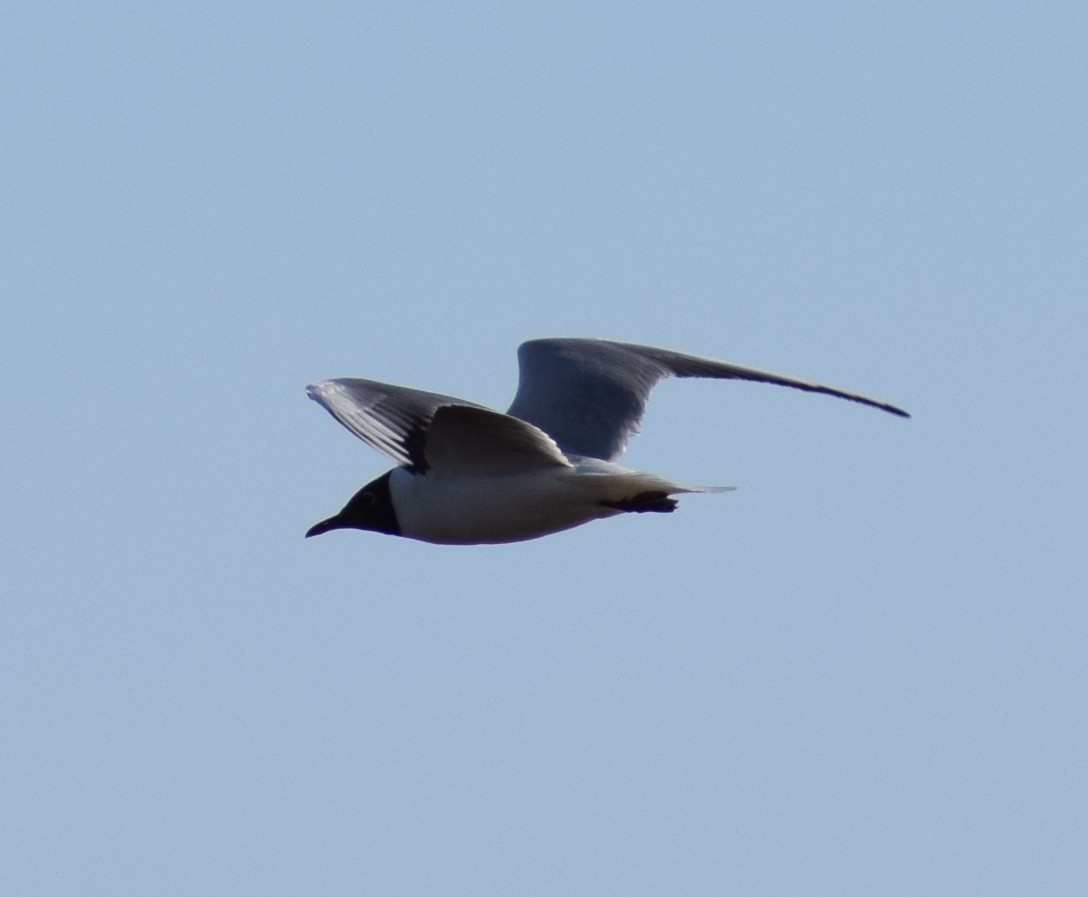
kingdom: Animalia
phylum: Chordata
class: Aves
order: Charadriiformes
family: Laridae
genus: Chroicocephalus
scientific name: Chroicocephalus ridibundus
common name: Black-headed gull
